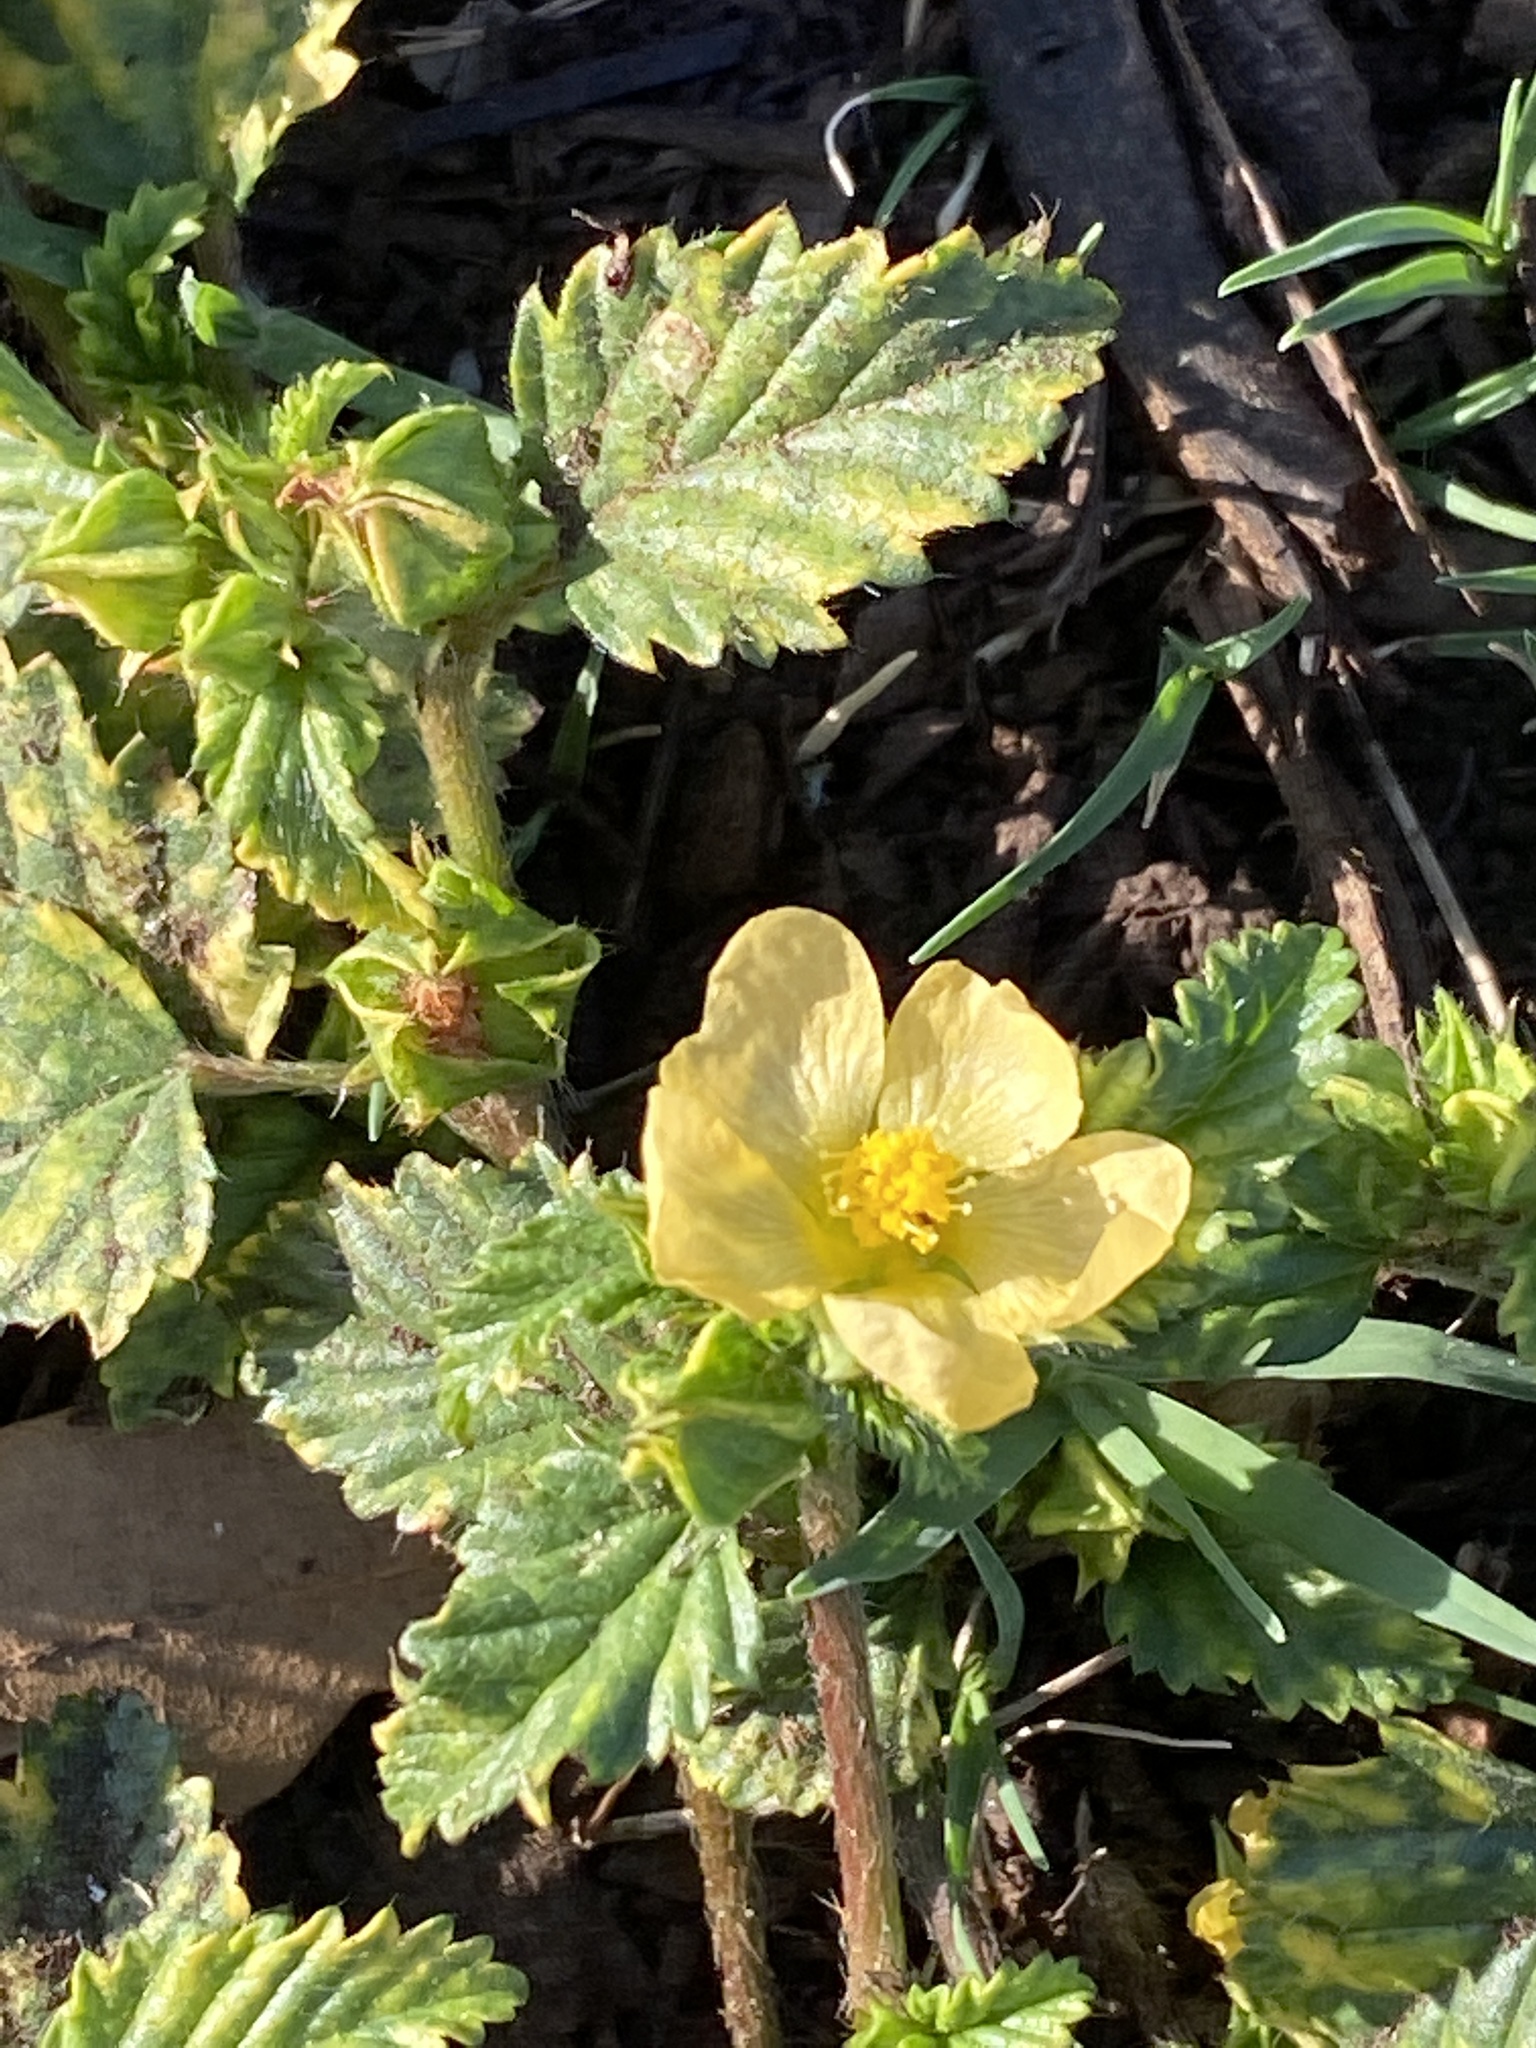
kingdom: Plantae
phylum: Tracheophyta
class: Magnoliopsida
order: Malvales
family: Malvaceae
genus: Malvastrum
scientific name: Malvastrum coromandelianum
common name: Threelobe false mallow
